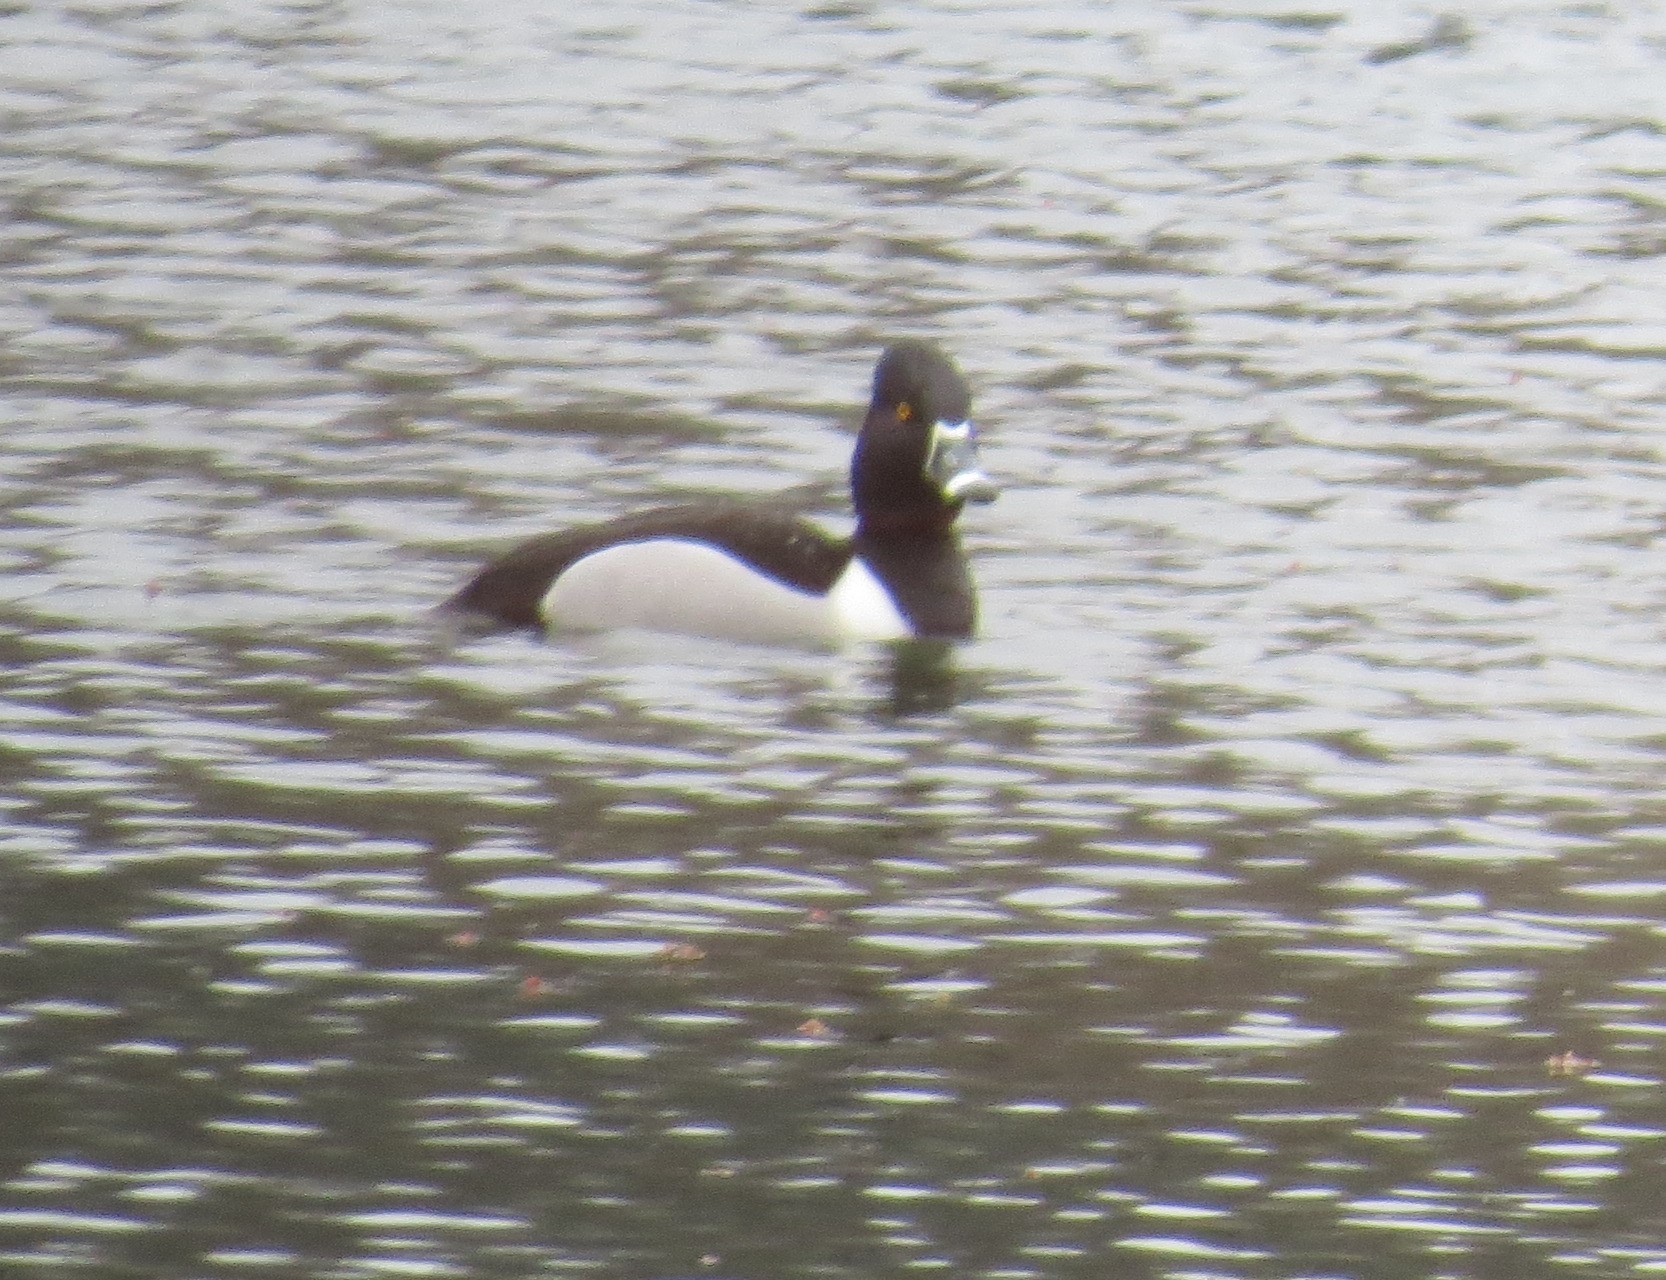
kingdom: Animalia
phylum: Chordata
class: Aves
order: Anseriformes
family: Anatidae
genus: Aythya
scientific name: Aythya collaris
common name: Ring-necked duck
